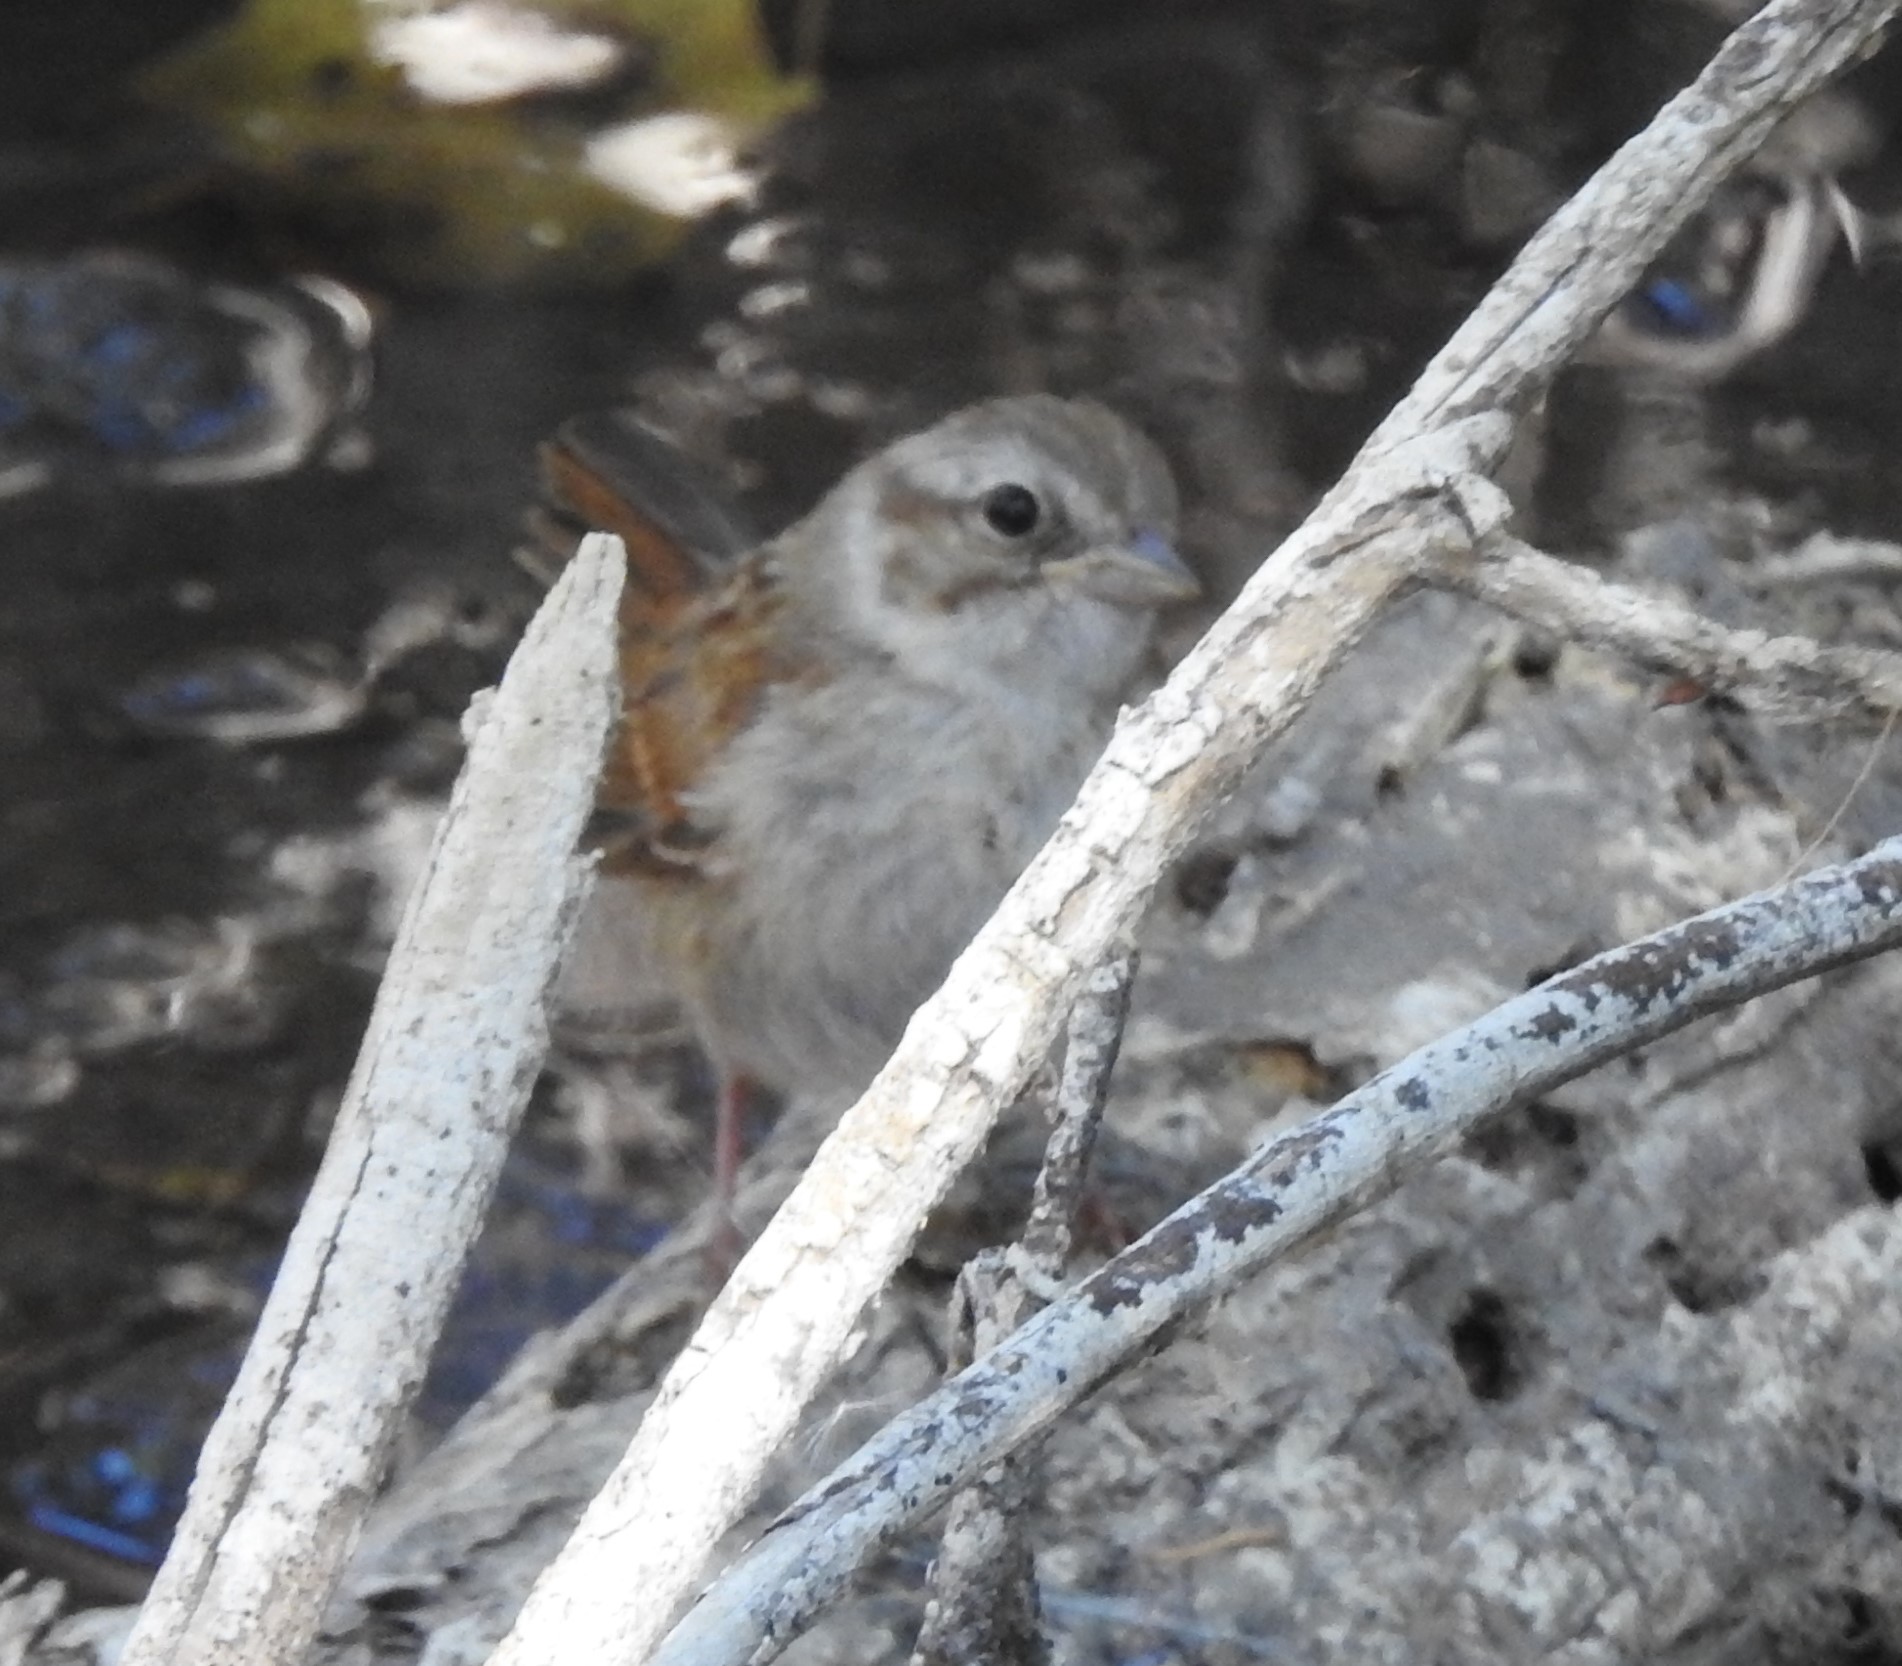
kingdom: Animalia
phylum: Chordata
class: Aves
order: Passeriformes
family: Passerellidae
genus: Melospiza
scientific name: Melospiza georgiana
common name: Swamp sparrow
